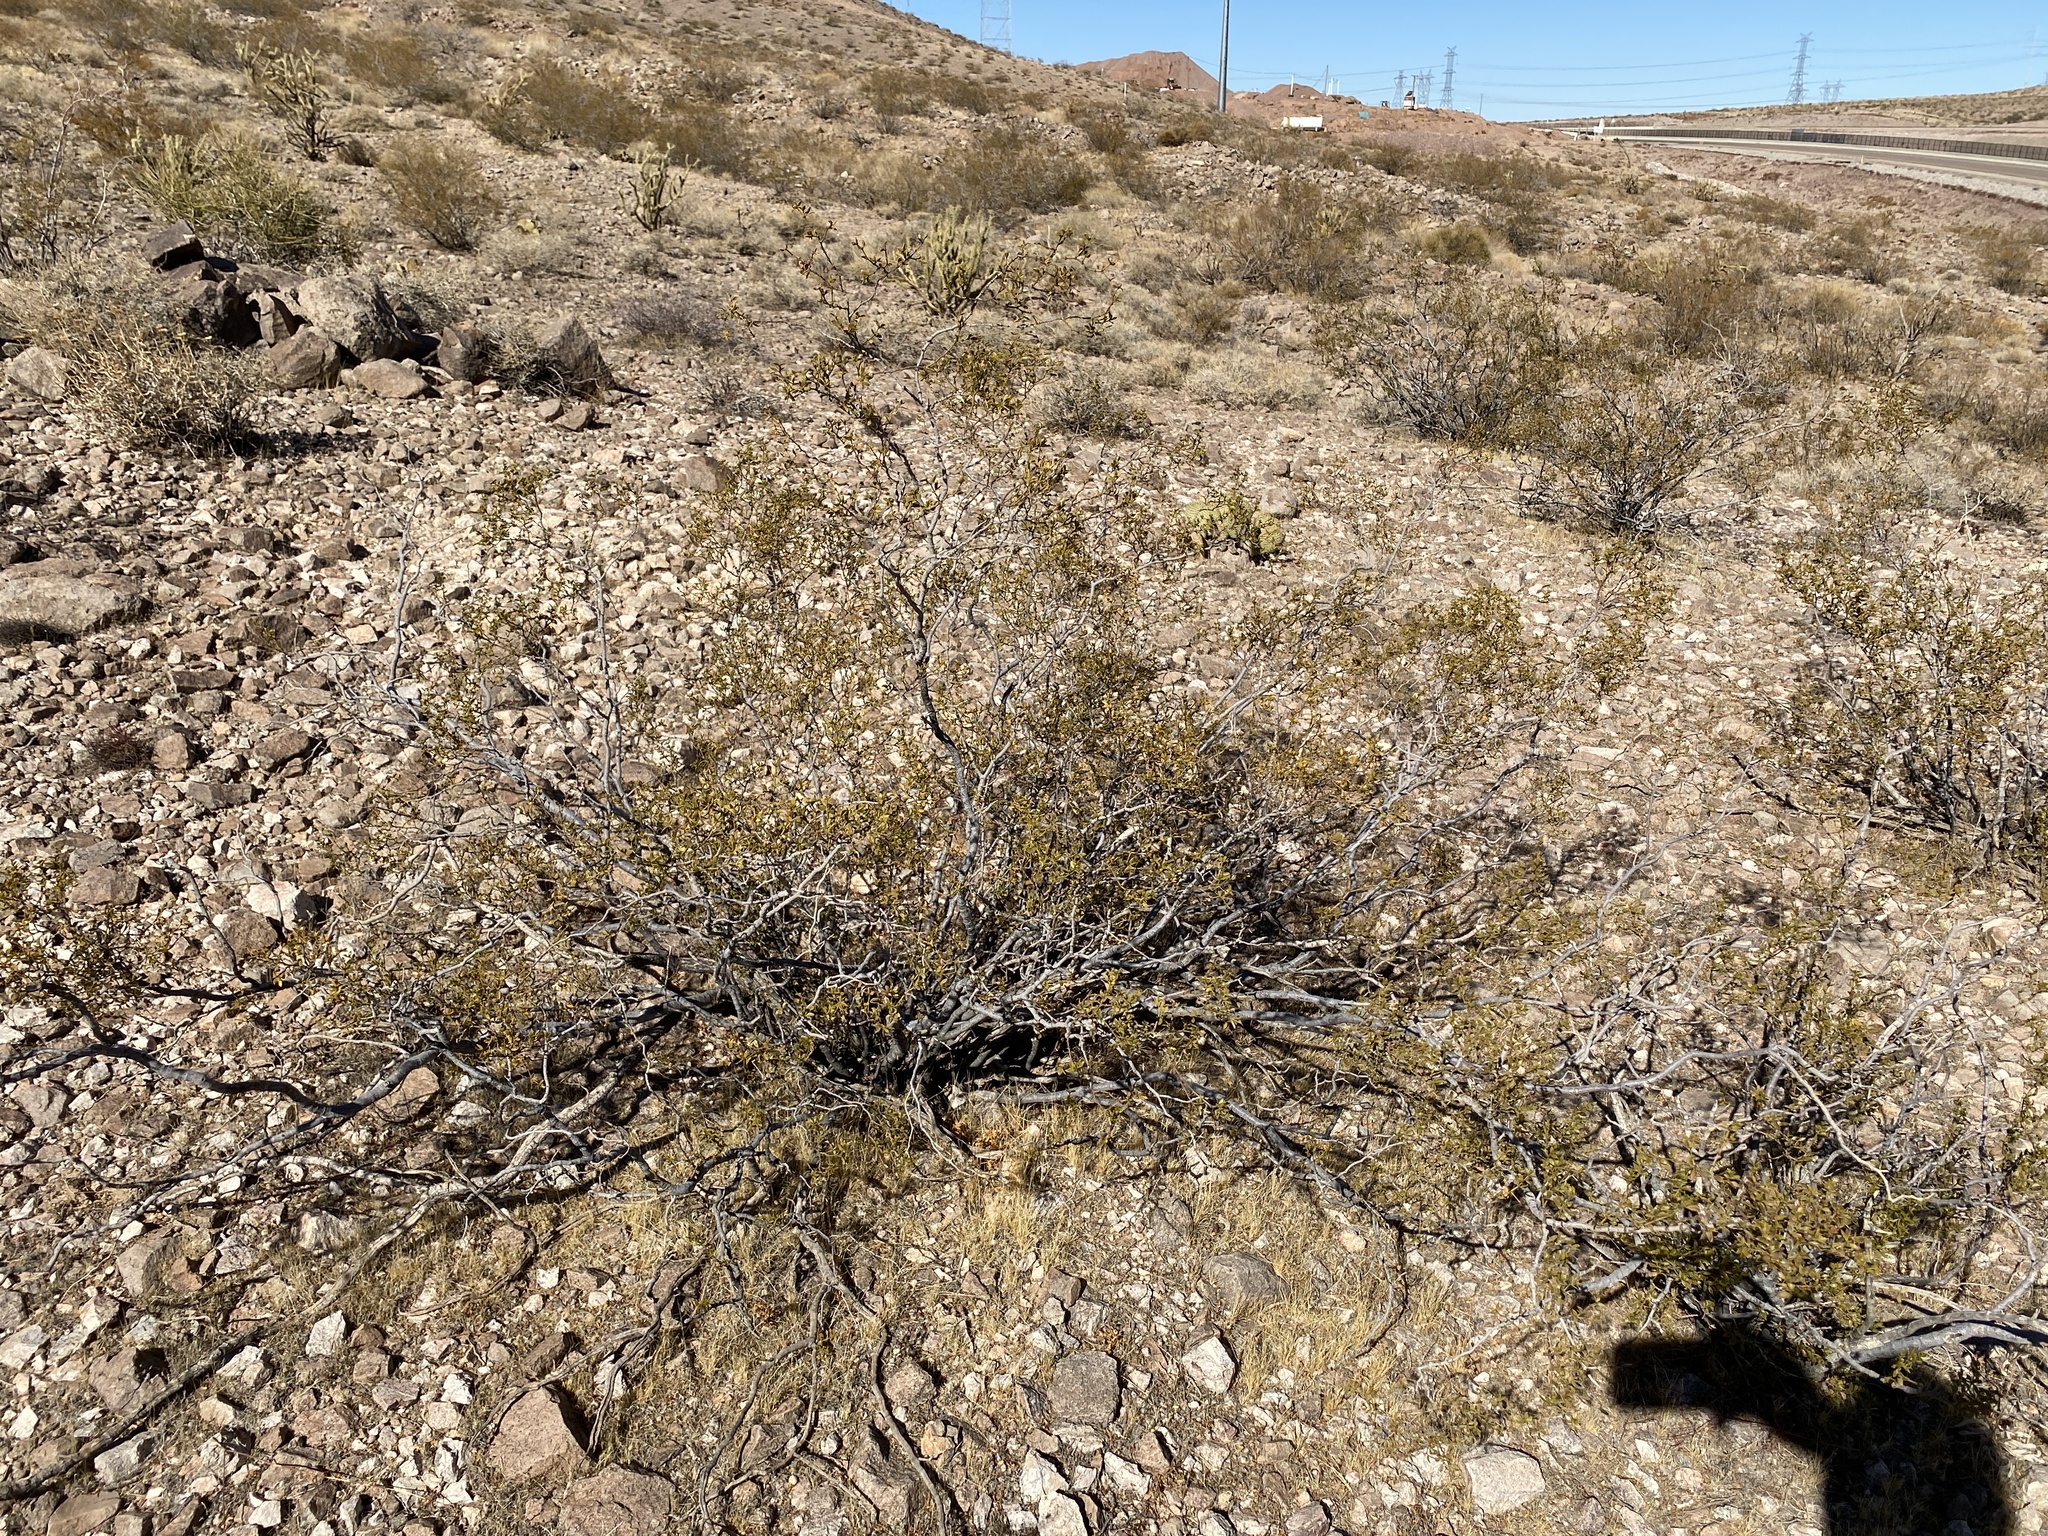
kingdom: Plantae
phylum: Tracheophyta
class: Magnoliopsida
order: Zygophyllales
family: Zygophyllaceae
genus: Larrea
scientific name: Larrea tridentata
